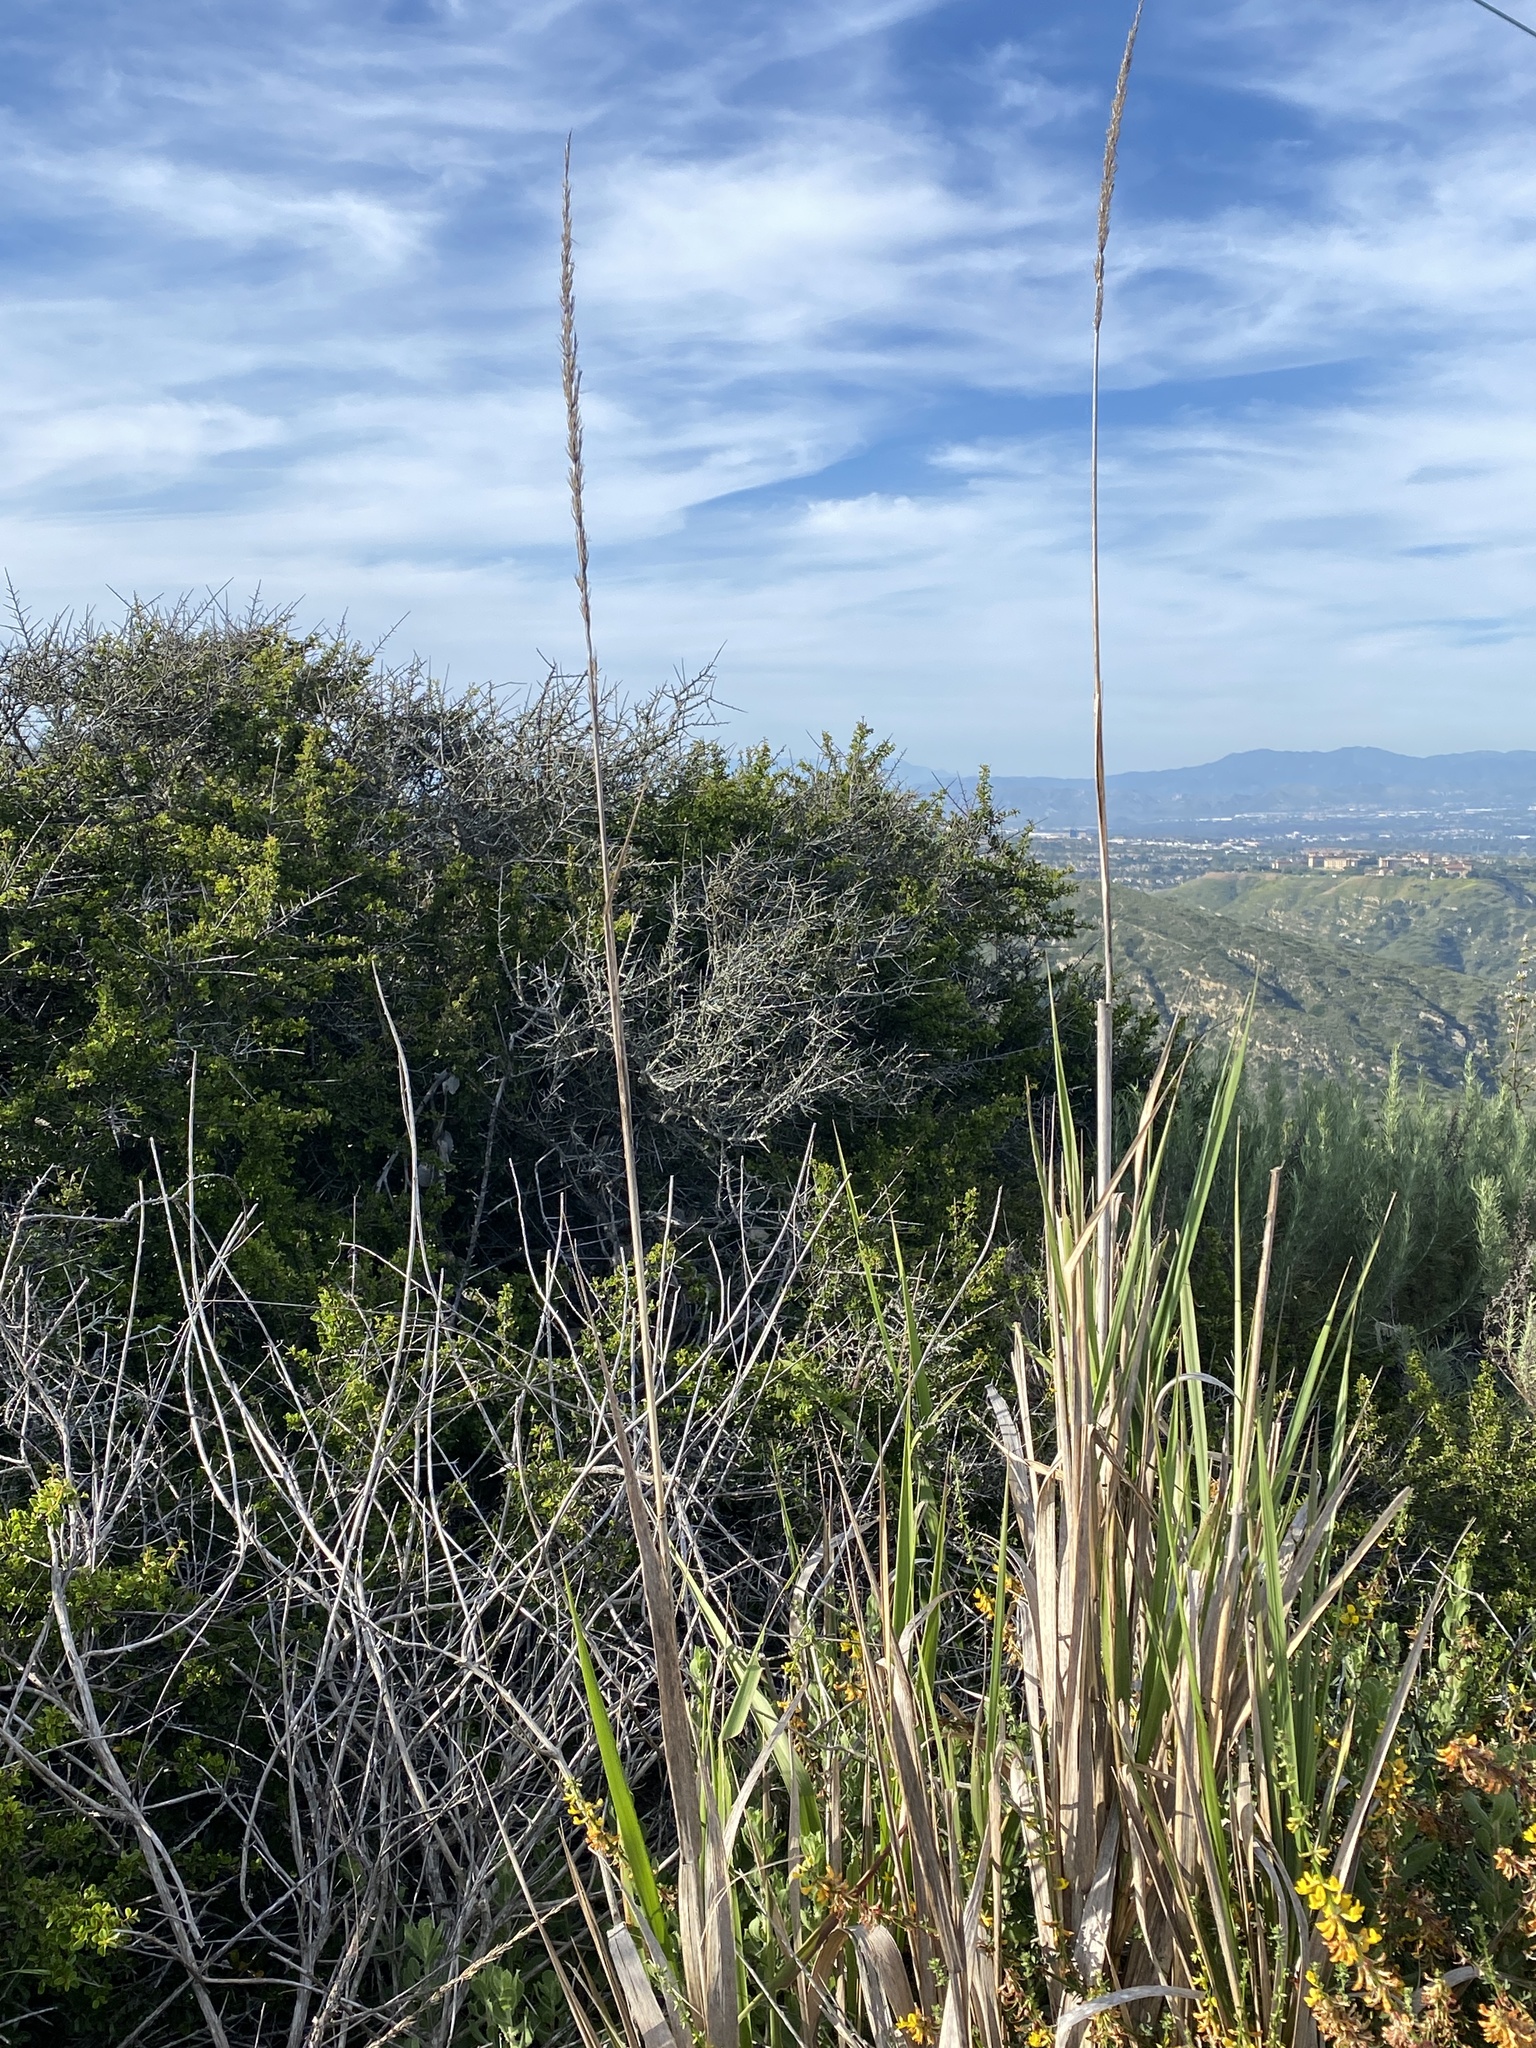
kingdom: Plantae
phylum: Tracheophyta
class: Liliopsida
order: Poales
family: Poaceae
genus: Leymus
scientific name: Leymus condensatus
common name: Giant wild rye
